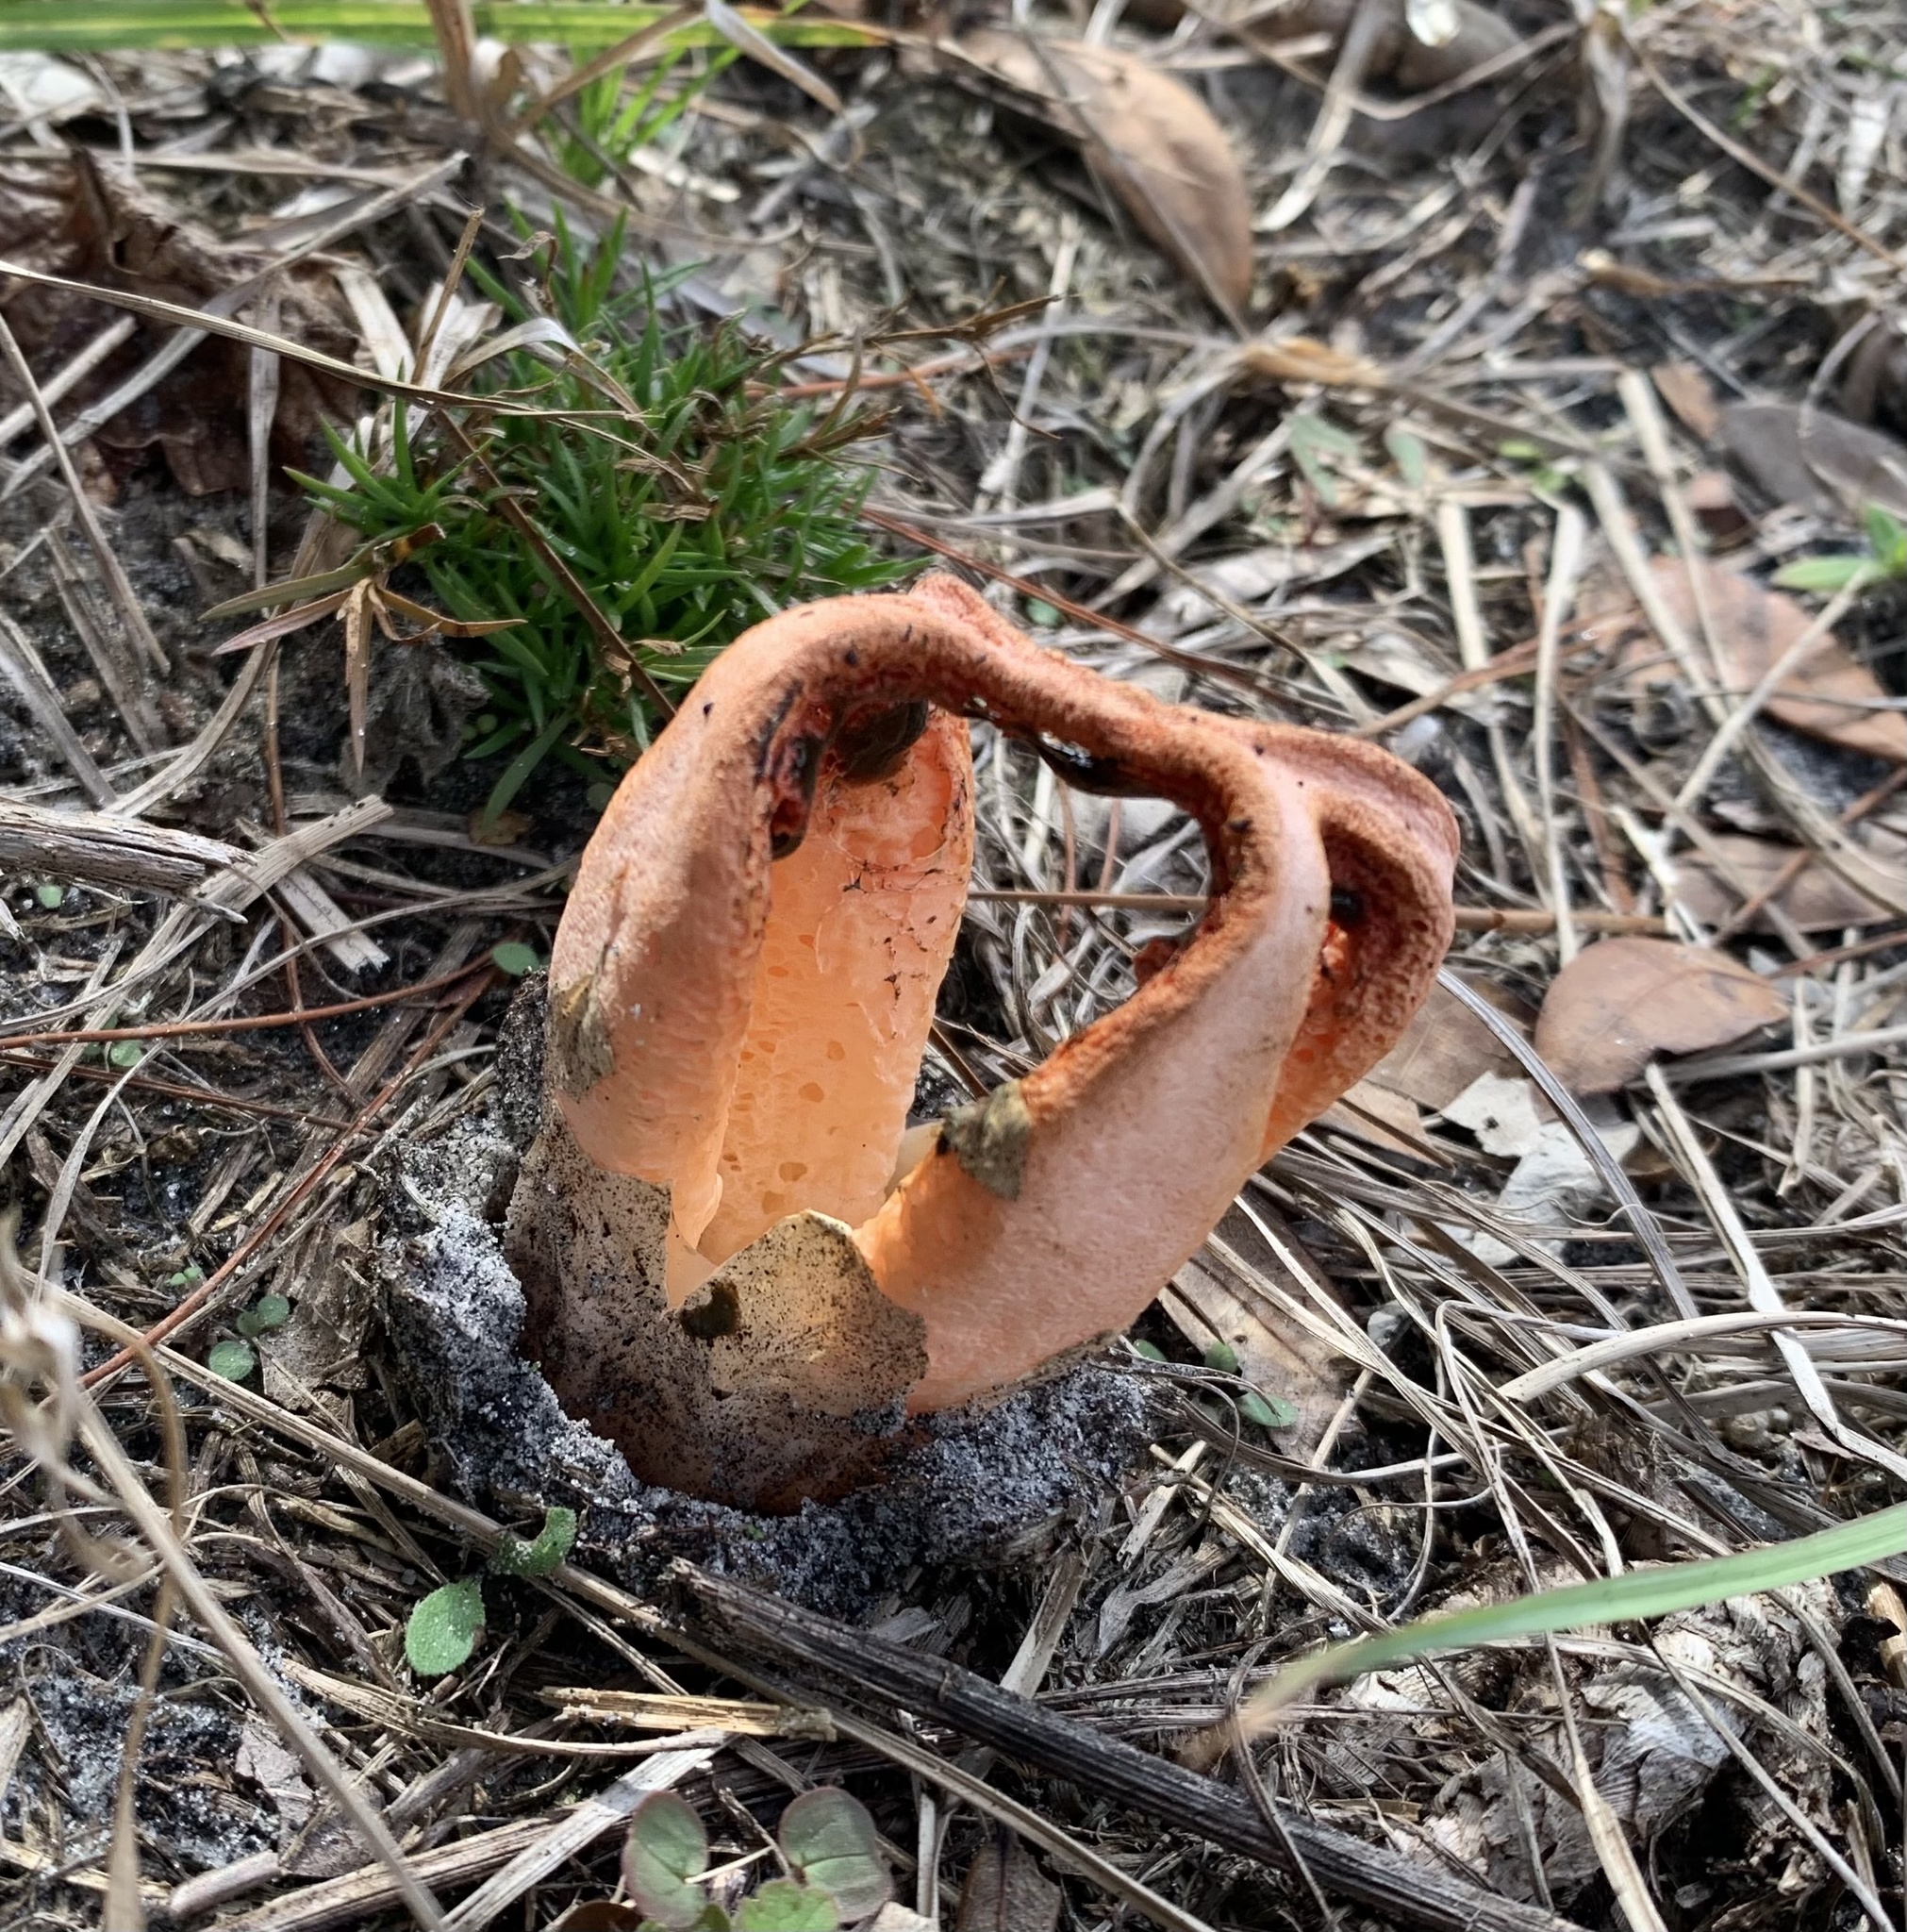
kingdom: Fungi
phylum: Basidiomycota
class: Agaricomycetes
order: Phallales
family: Phallaceae
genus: Clathrus
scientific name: Clathrus columnatus
